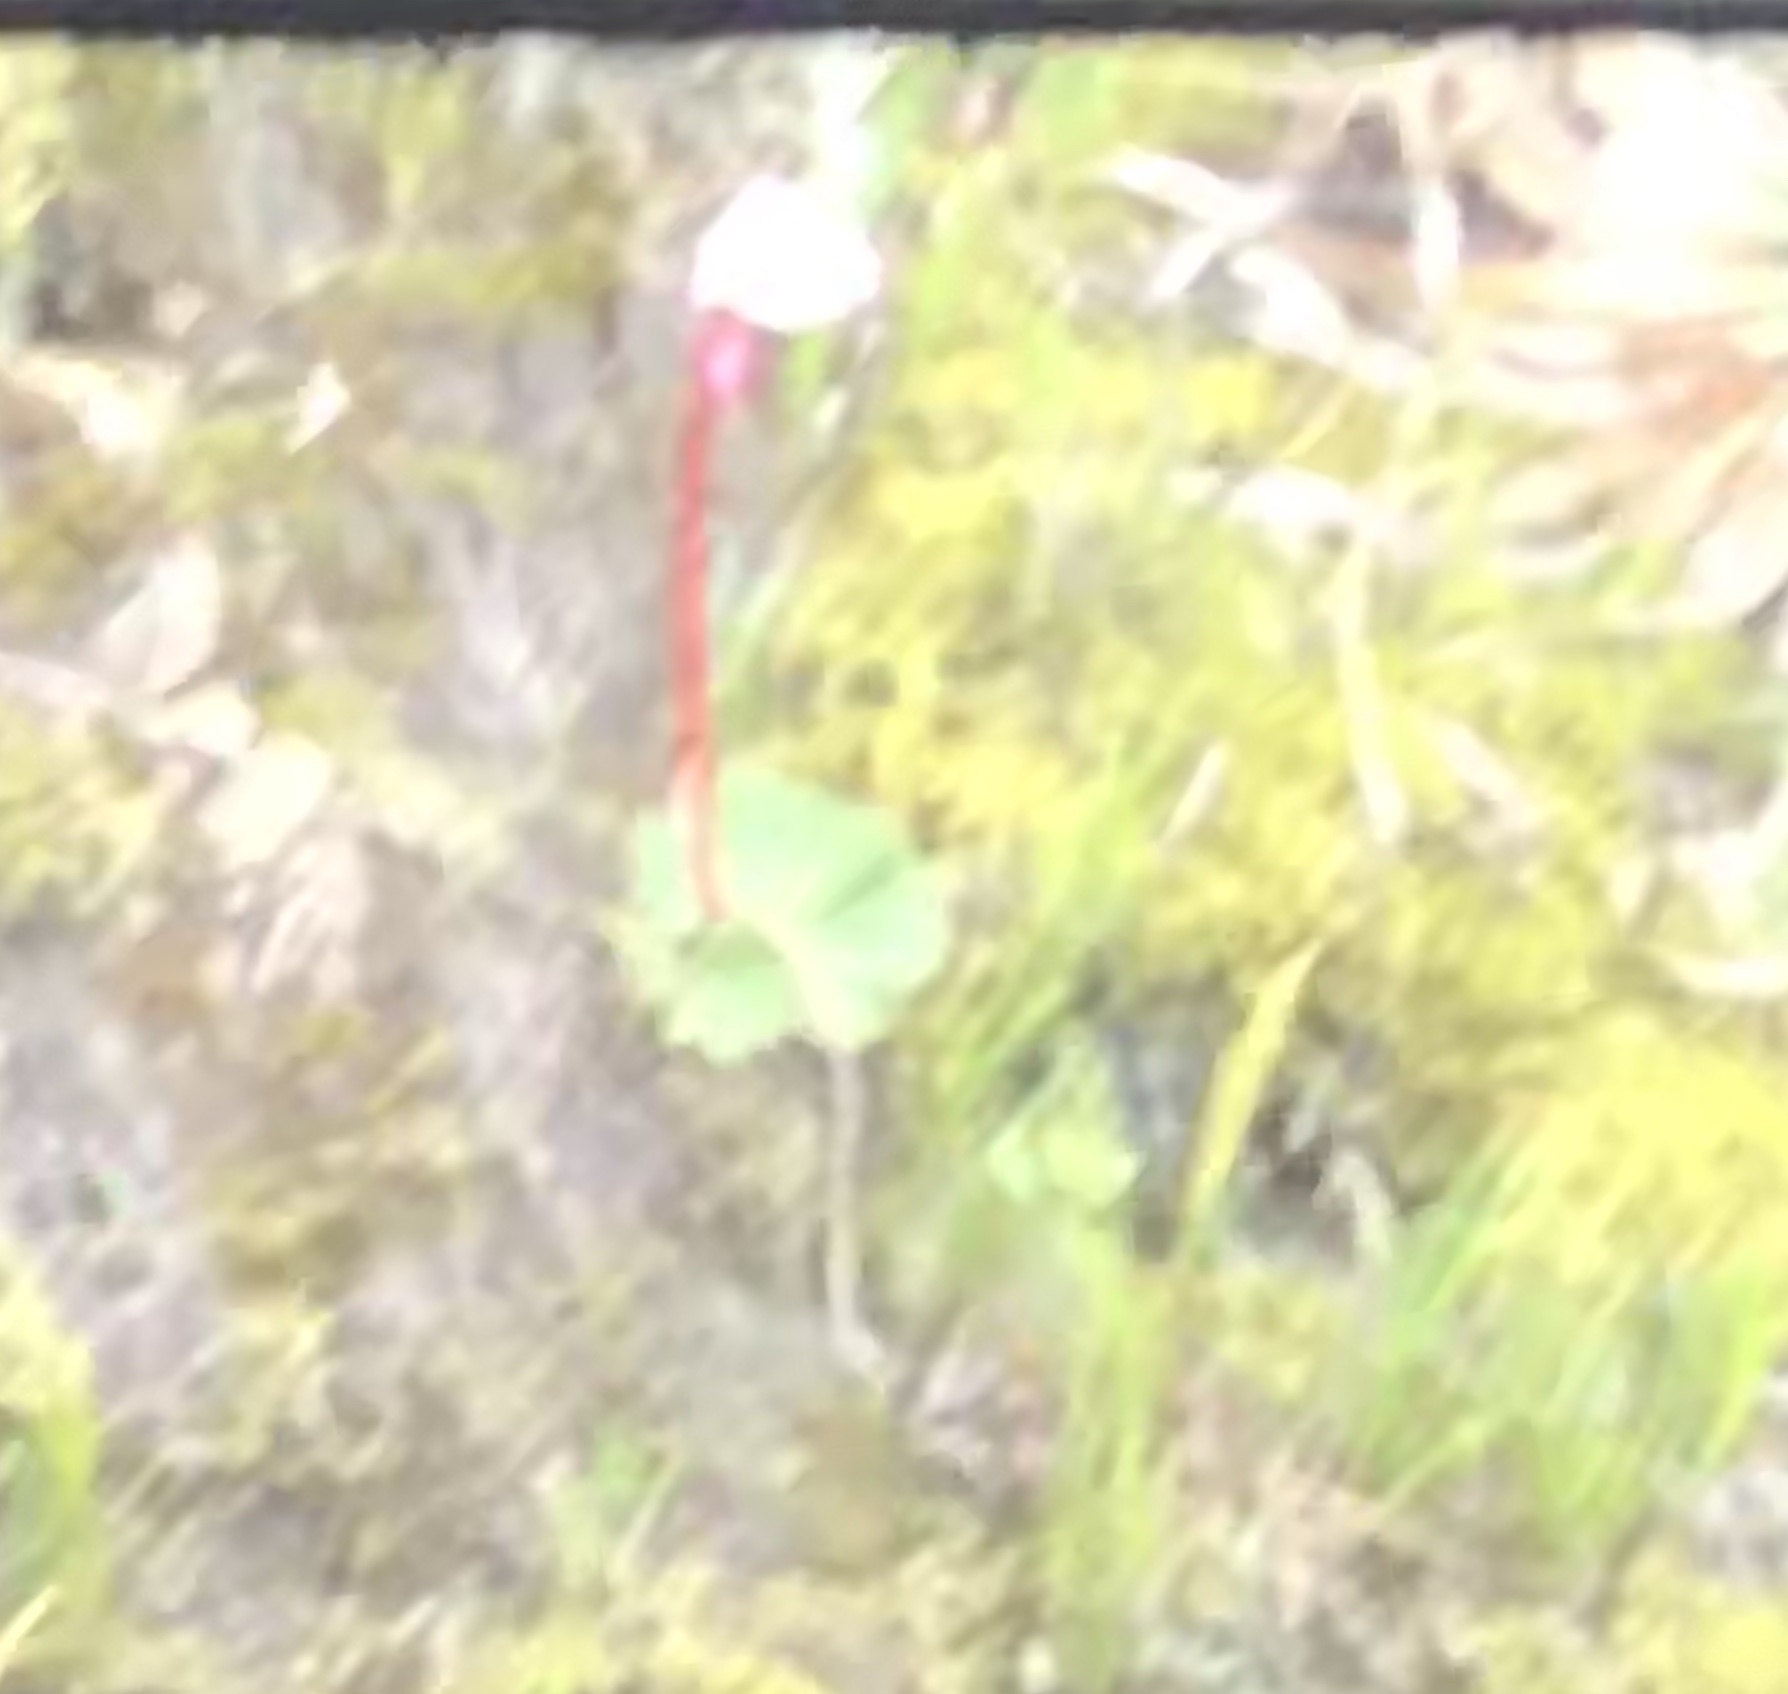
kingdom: Plantae
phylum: Tracheophyta
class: Magnoliopsida
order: Cucurbitales
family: Begoniaceae
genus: Begonia
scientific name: Begonia veitchii
